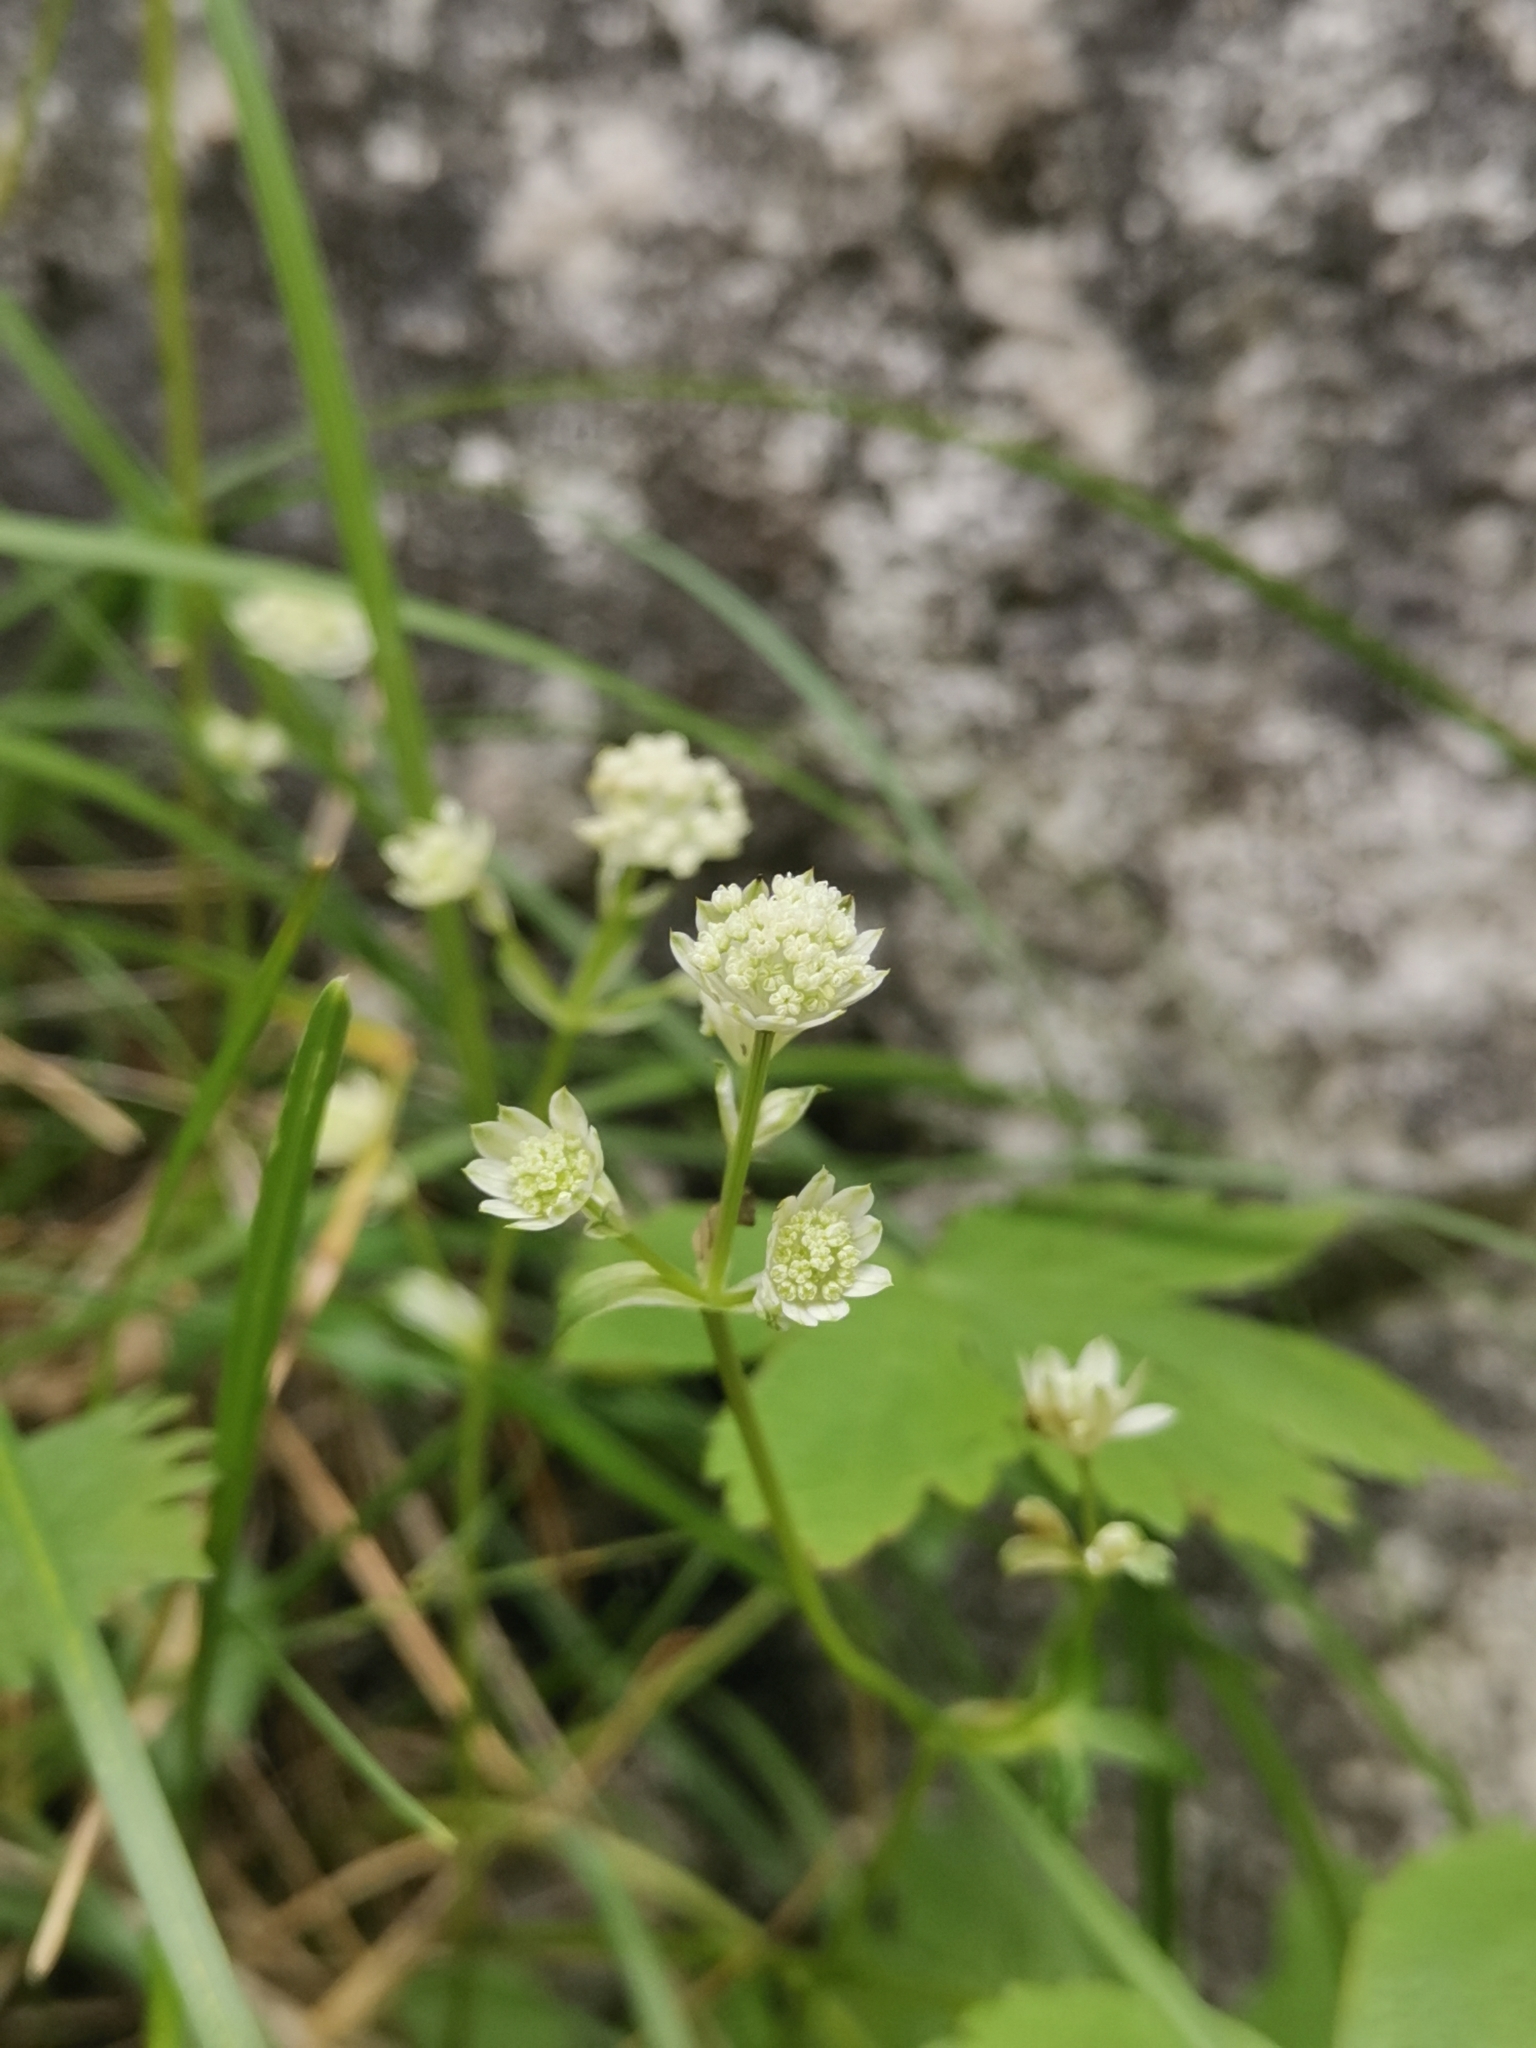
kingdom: Plantae
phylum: Tracheophyta
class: Magnoliopsida
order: Apiales
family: Apiaceae
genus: Astrantia
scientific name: Astrantia carniolica
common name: Carnic masterwort
